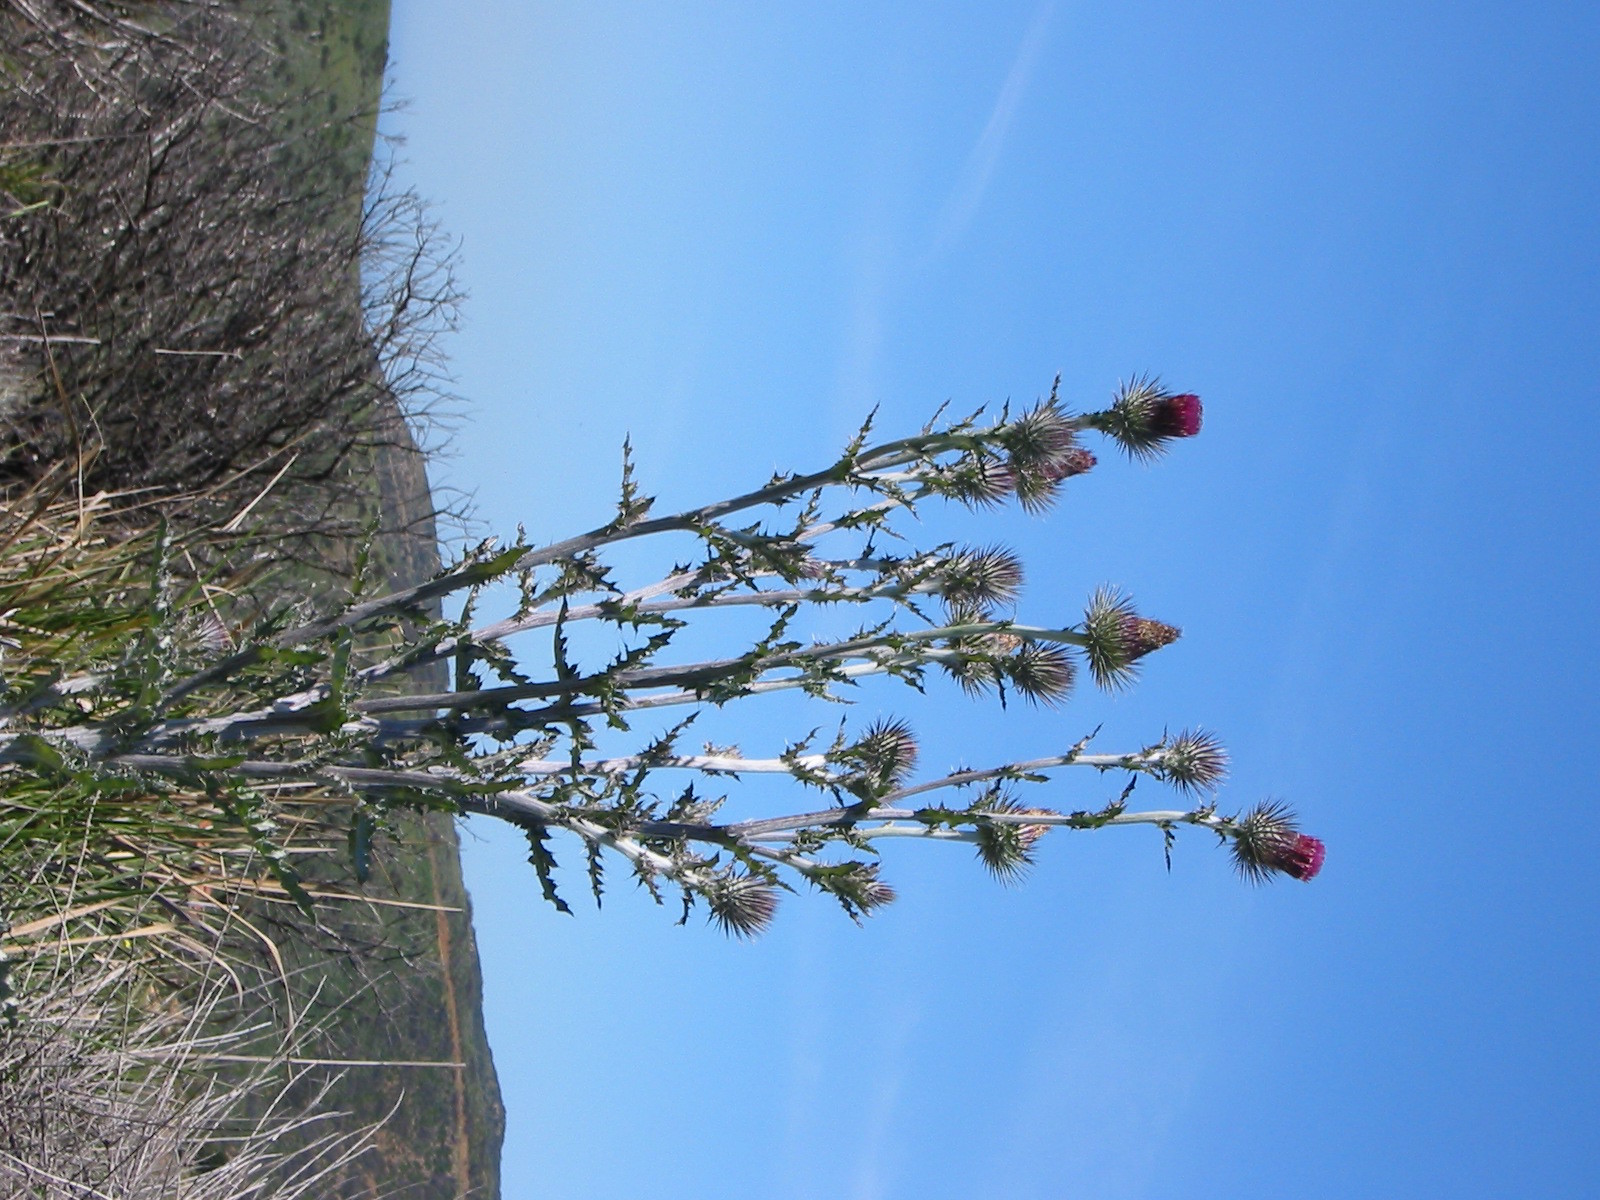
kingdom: Plantae
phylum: Tracheophyta
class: Magnoliopsida
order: Asterales
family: Asteraceae
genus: Cirsium
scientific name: Cirsium occidentale
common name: Western thistle
